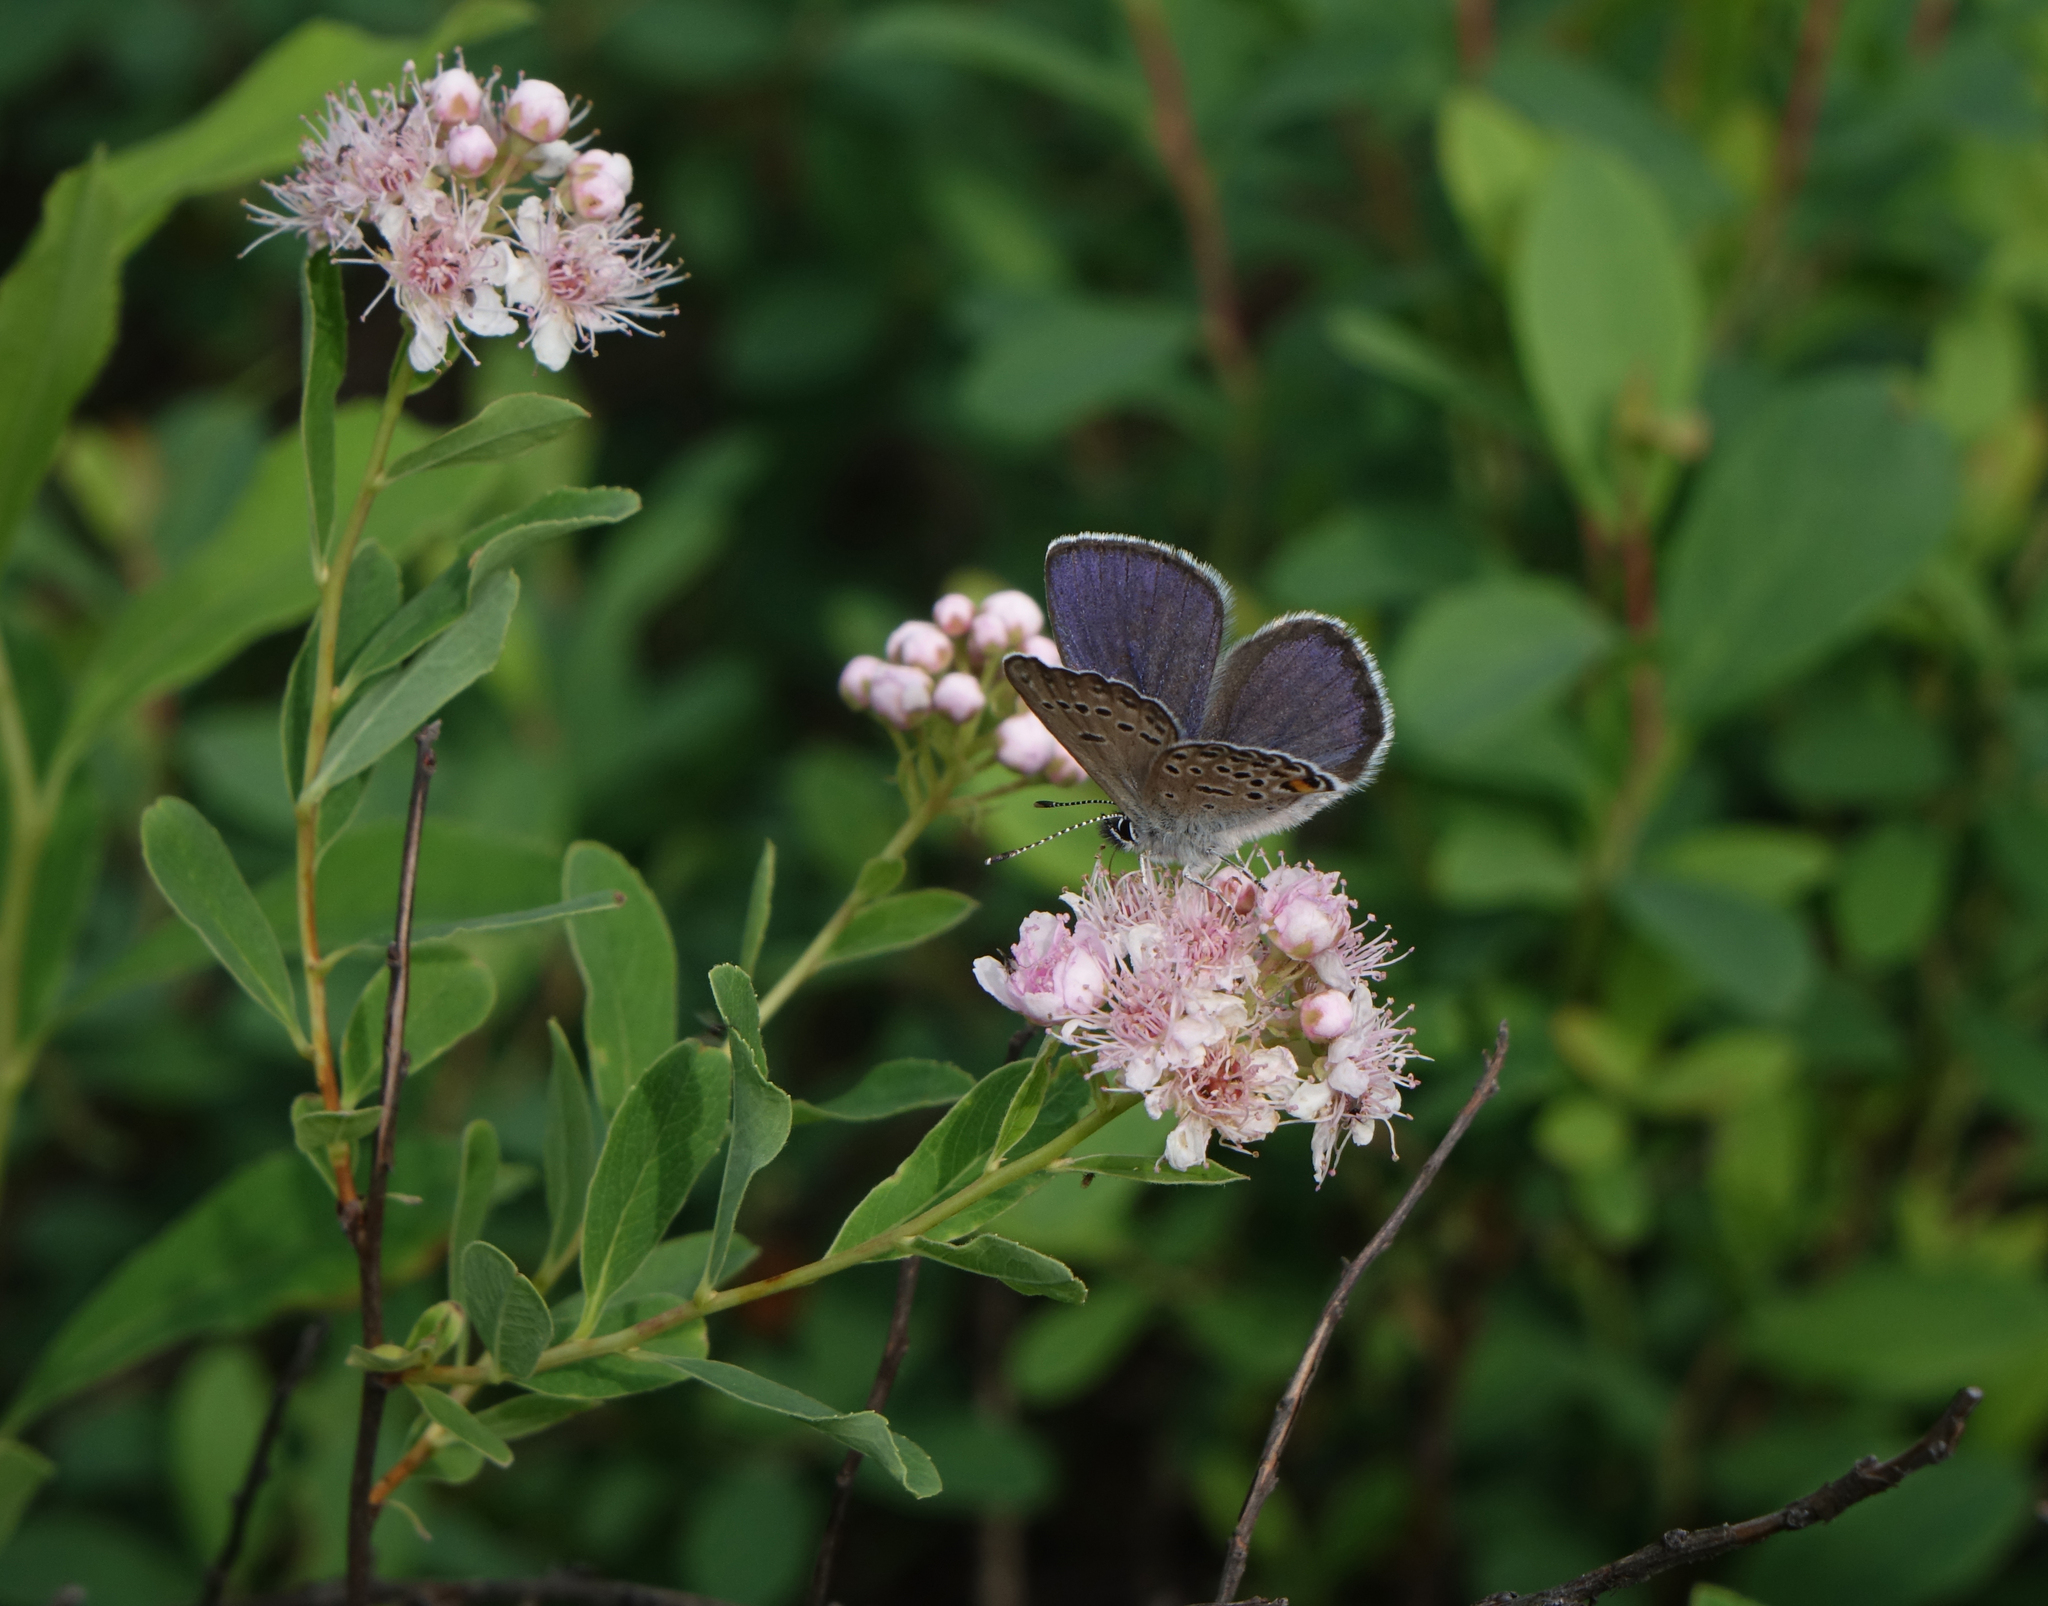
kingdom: Animalia
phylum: Arthropoda
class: Insecta
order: Lepidoptera
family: Lycaenidae
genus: Vacciniina
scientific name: Vacciniina optilete
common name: Cranberry blue
